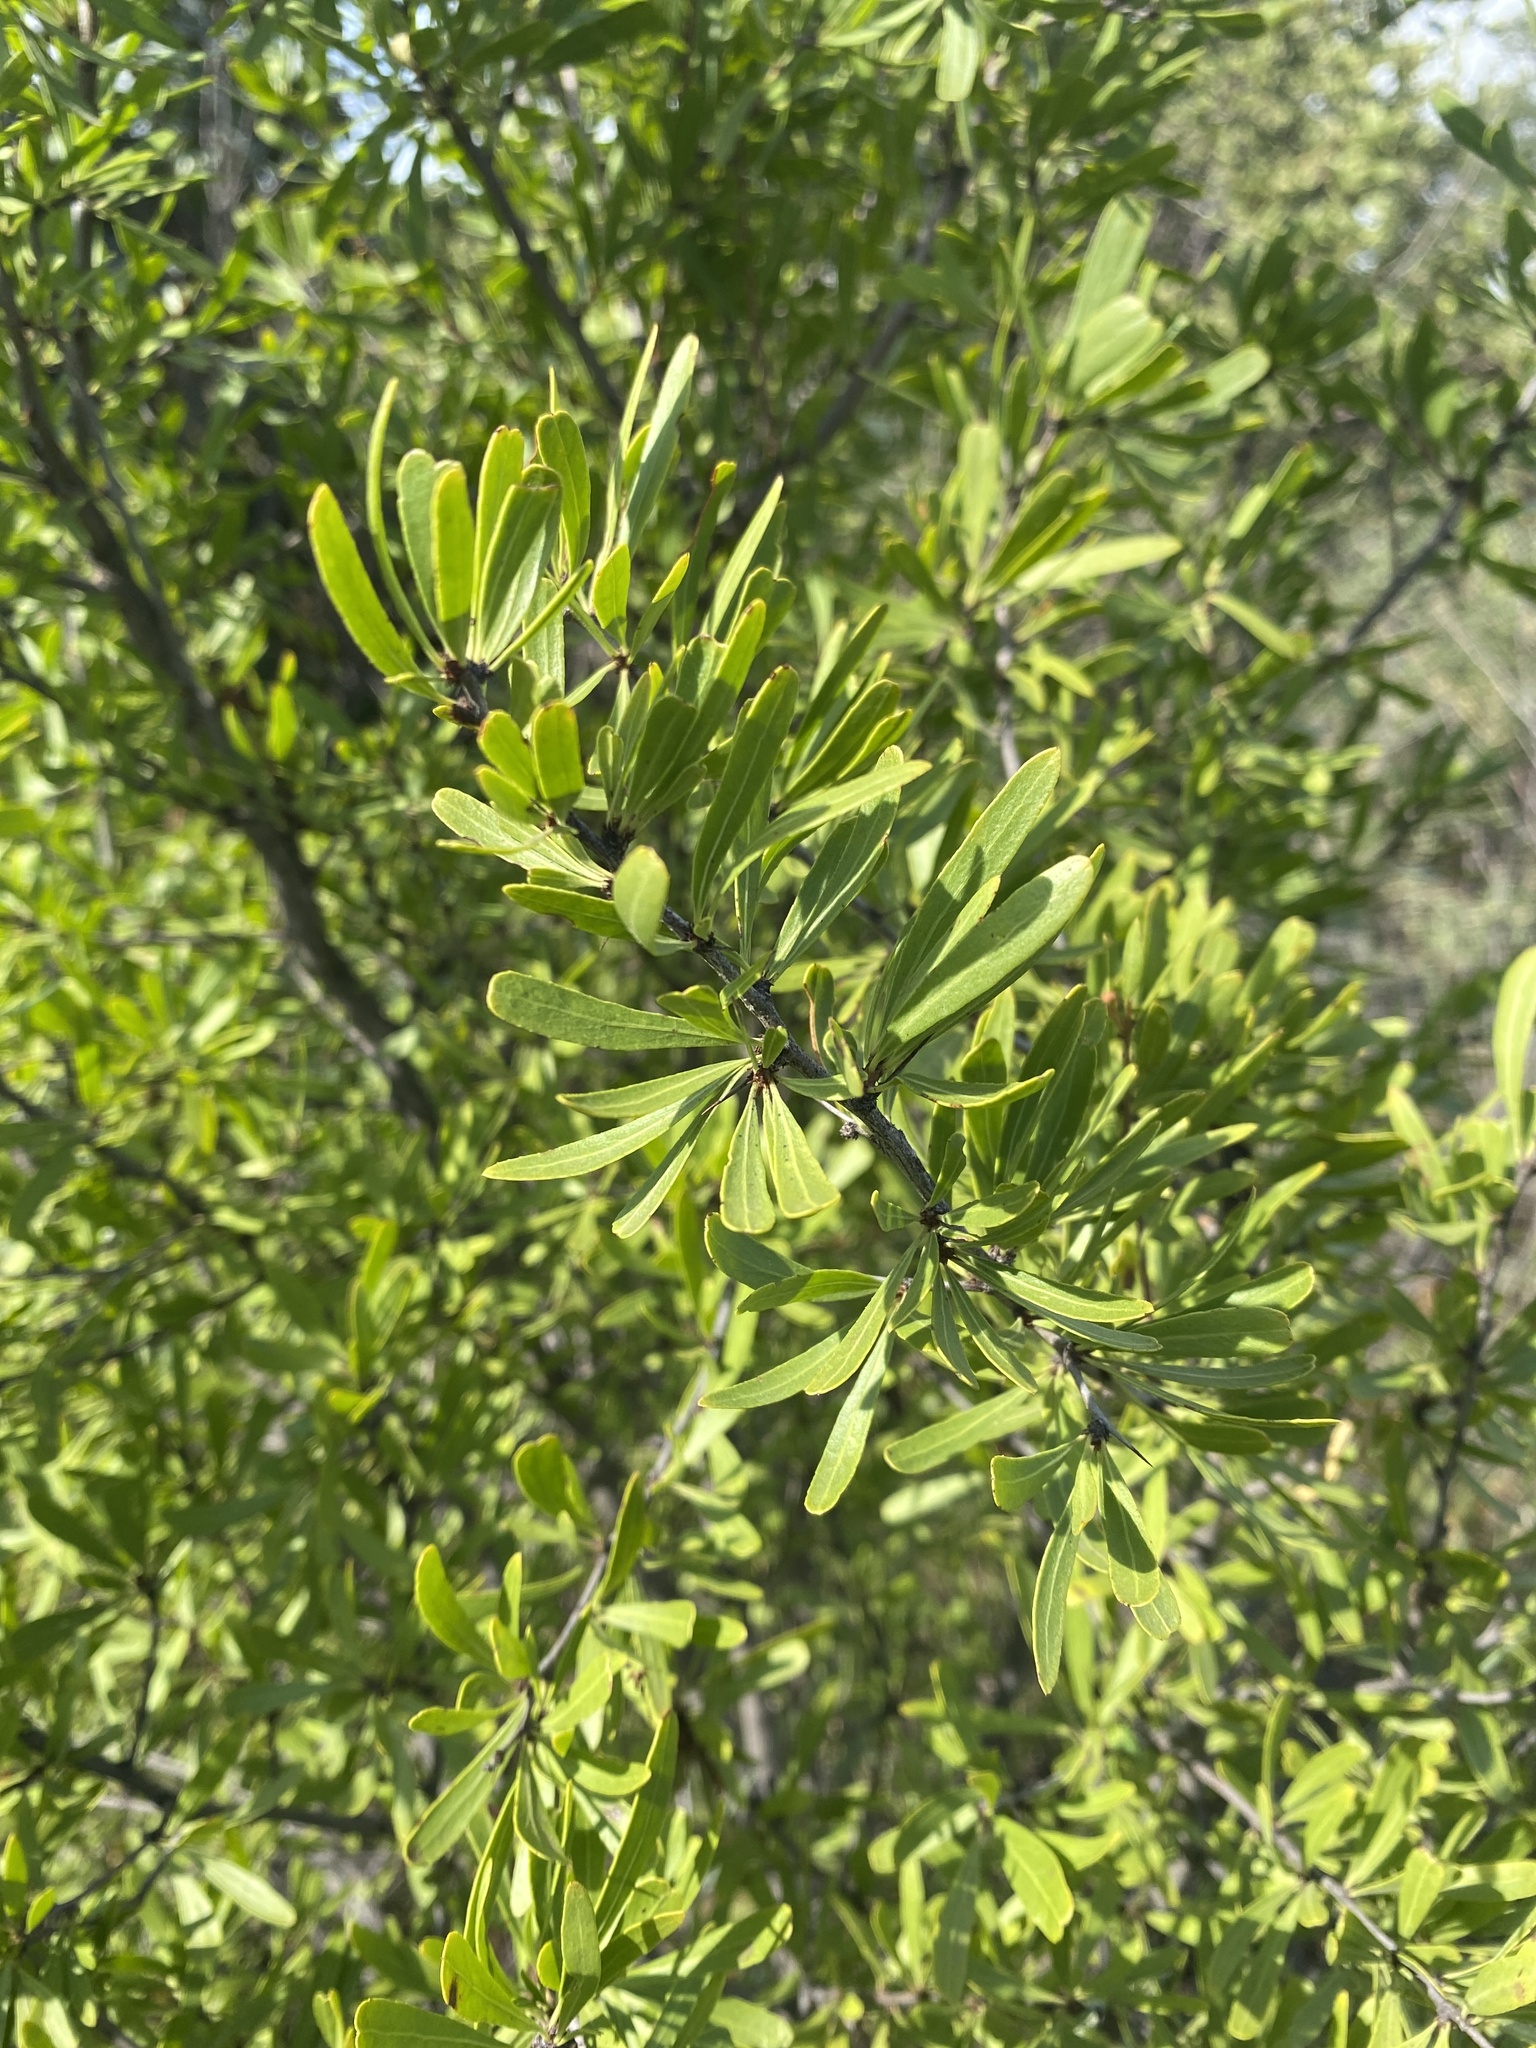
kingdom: Plantae
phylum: Tracheophyta
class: Magnoliopsida
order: Celastrales
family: Celastraceae
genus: Gymnosporia
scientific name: Gymnosporia tenuispina
